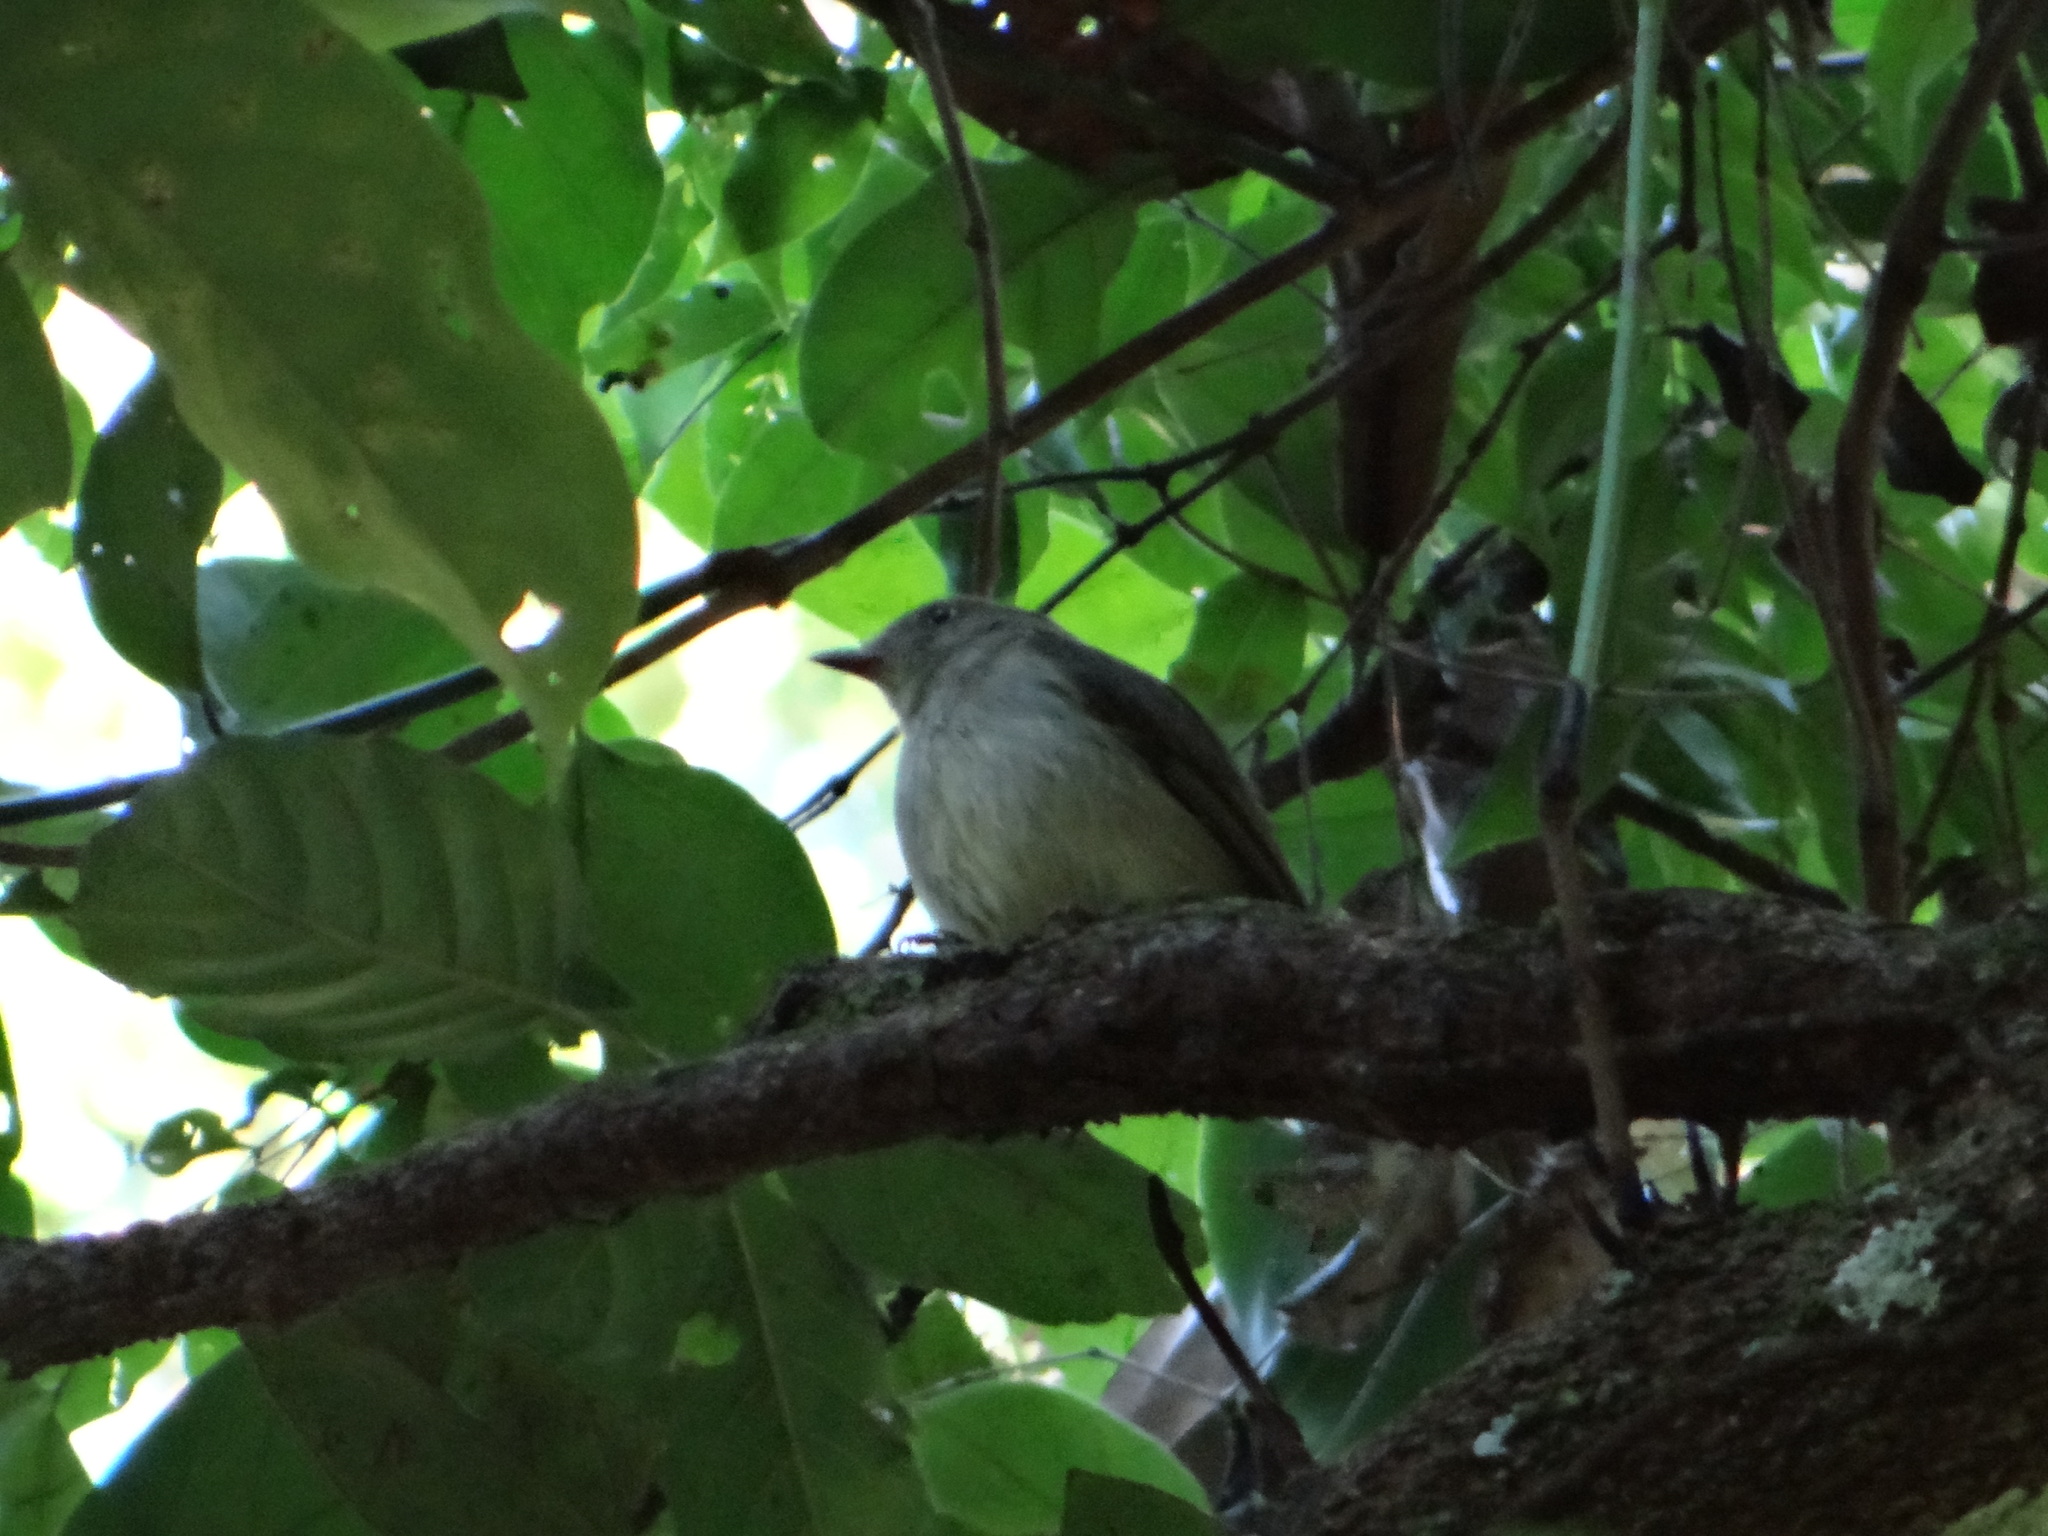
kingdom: Animalia
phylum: Chordata
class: Aves
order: Passeriformes
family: Pipridae
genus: Neopelma
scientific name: Neopelma sulphureiventer
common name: Sulphur-bellied tyrant-manakin
